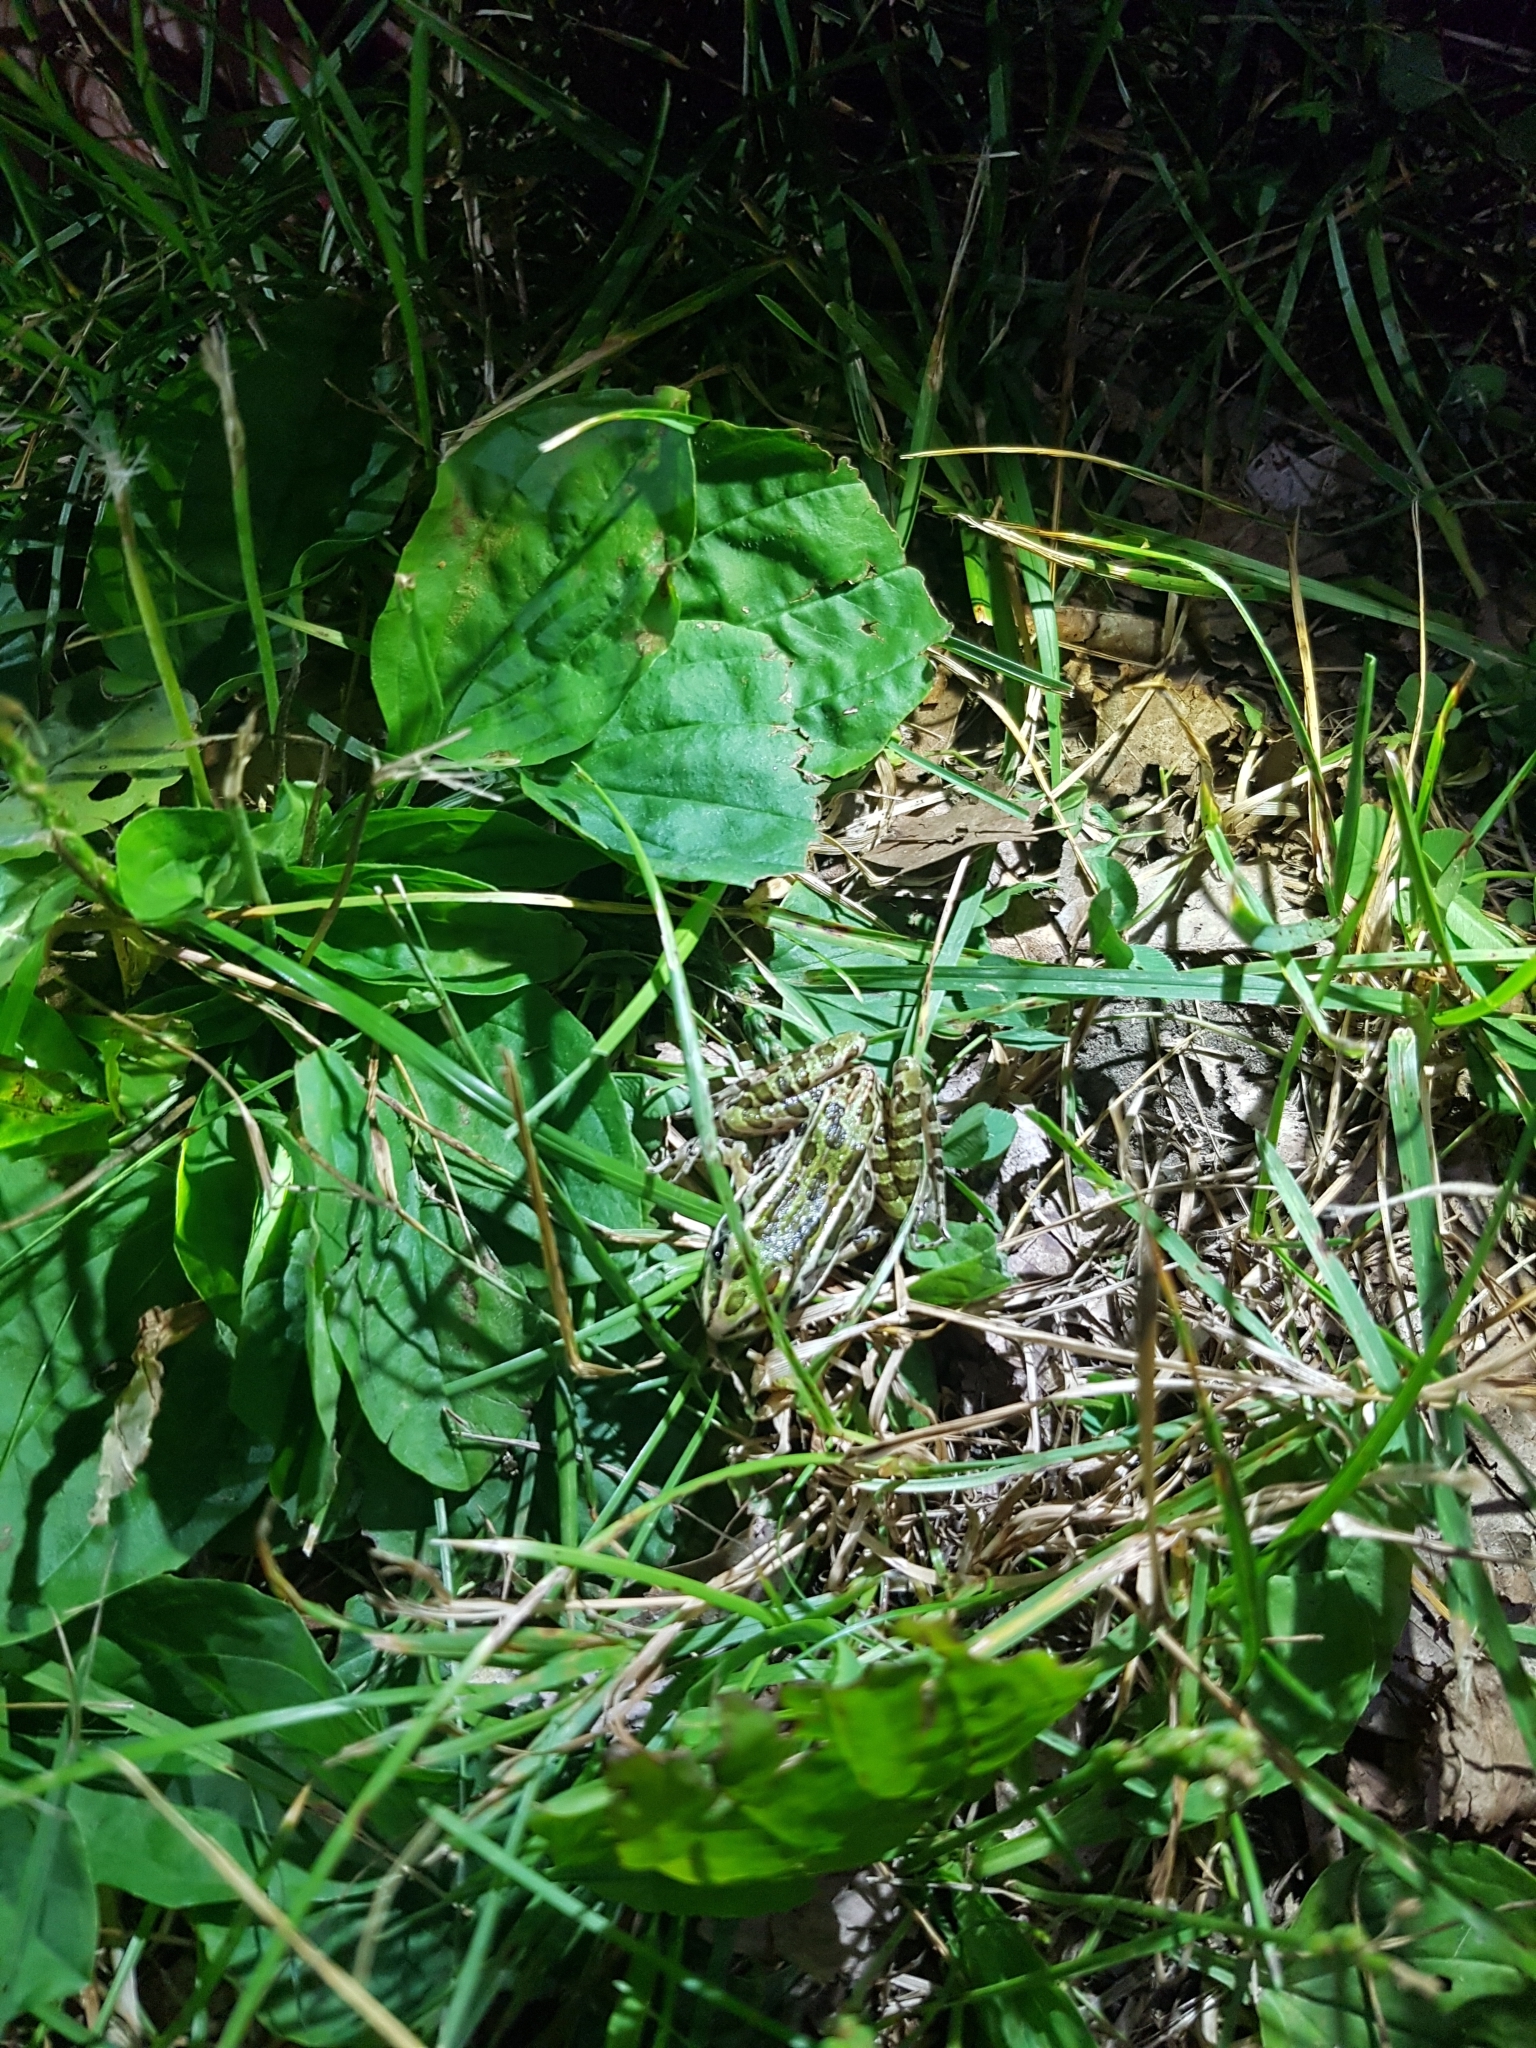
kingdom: Animalia
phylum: Chordata
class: Amphibia
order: Anura
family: Ranidae
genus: Lithobates
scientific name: Lithobates pipiens
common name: Northern leopard frog
